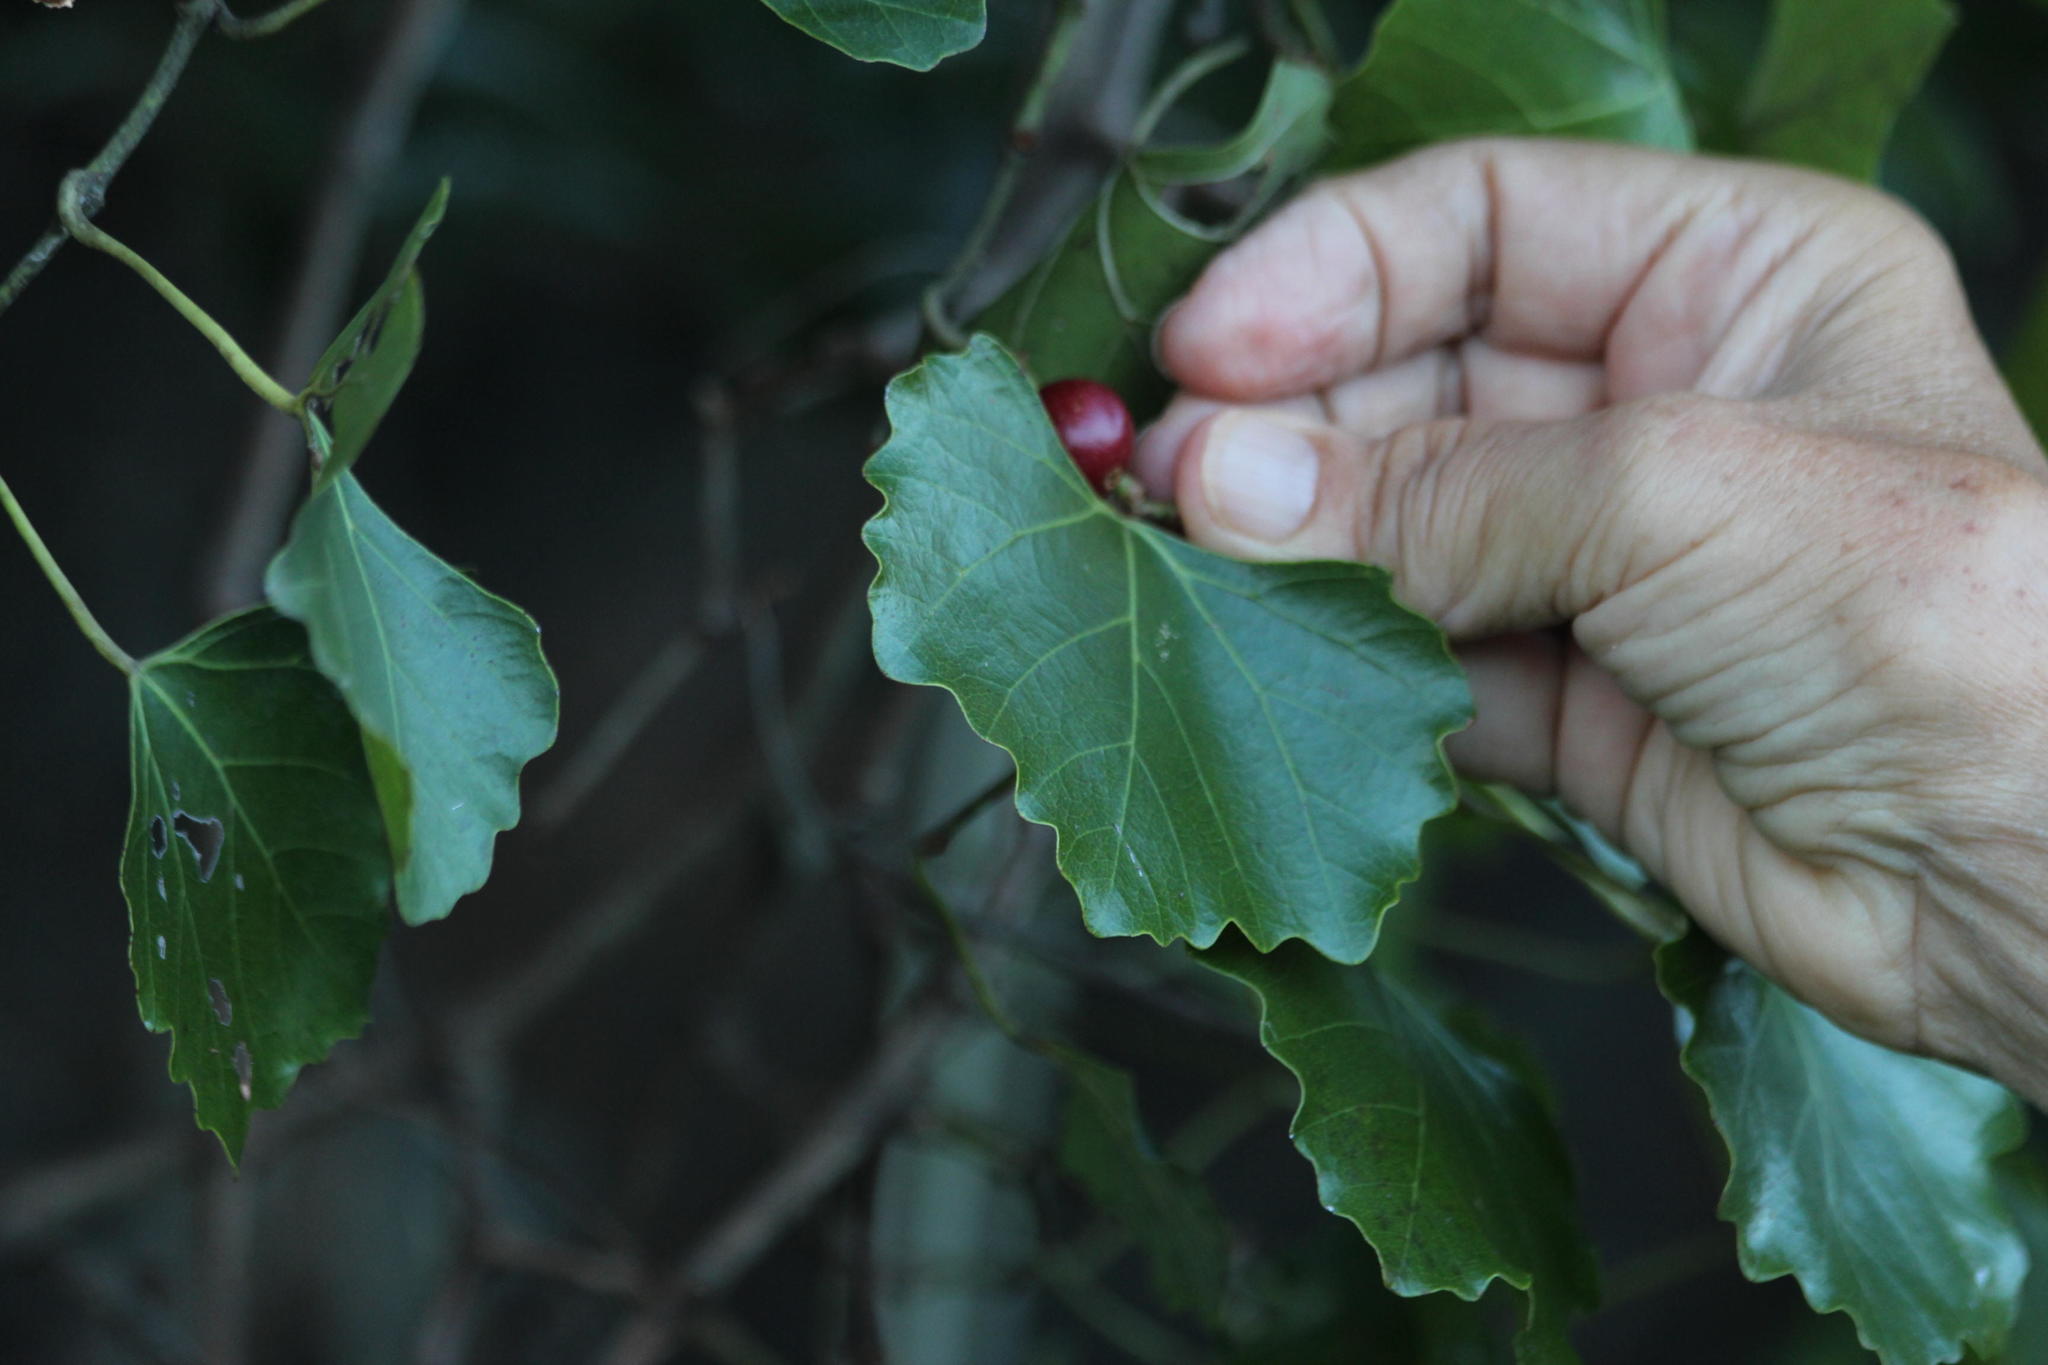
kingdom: Plantae
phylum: Tracheophyta
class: Magnoliopsida
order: Vitales
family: Vitaceae
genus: Rhoicissus
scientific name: Rhoicissus tomentosa
